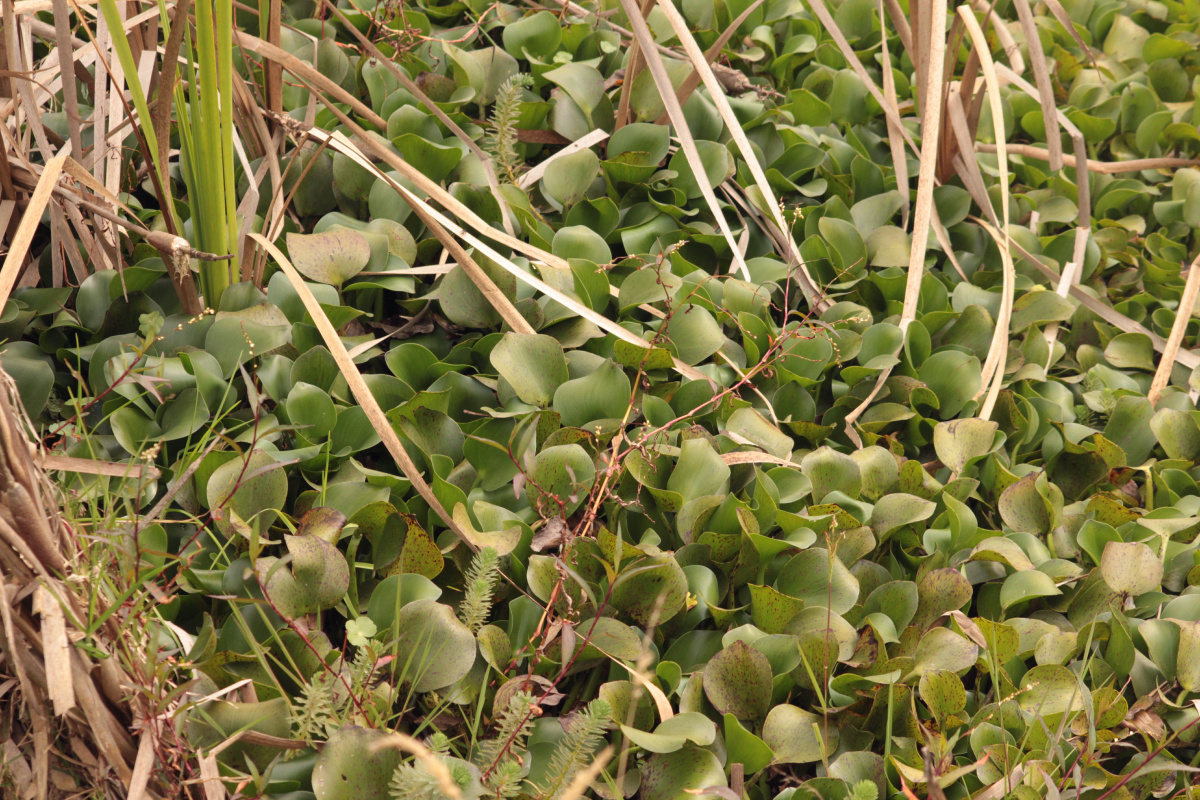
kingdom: Plantae
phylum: Tracheophyta
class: Liliopsida
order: Commelinales
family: Pontederiaceae
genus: Pontederia
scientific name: Pontederia crassipes
